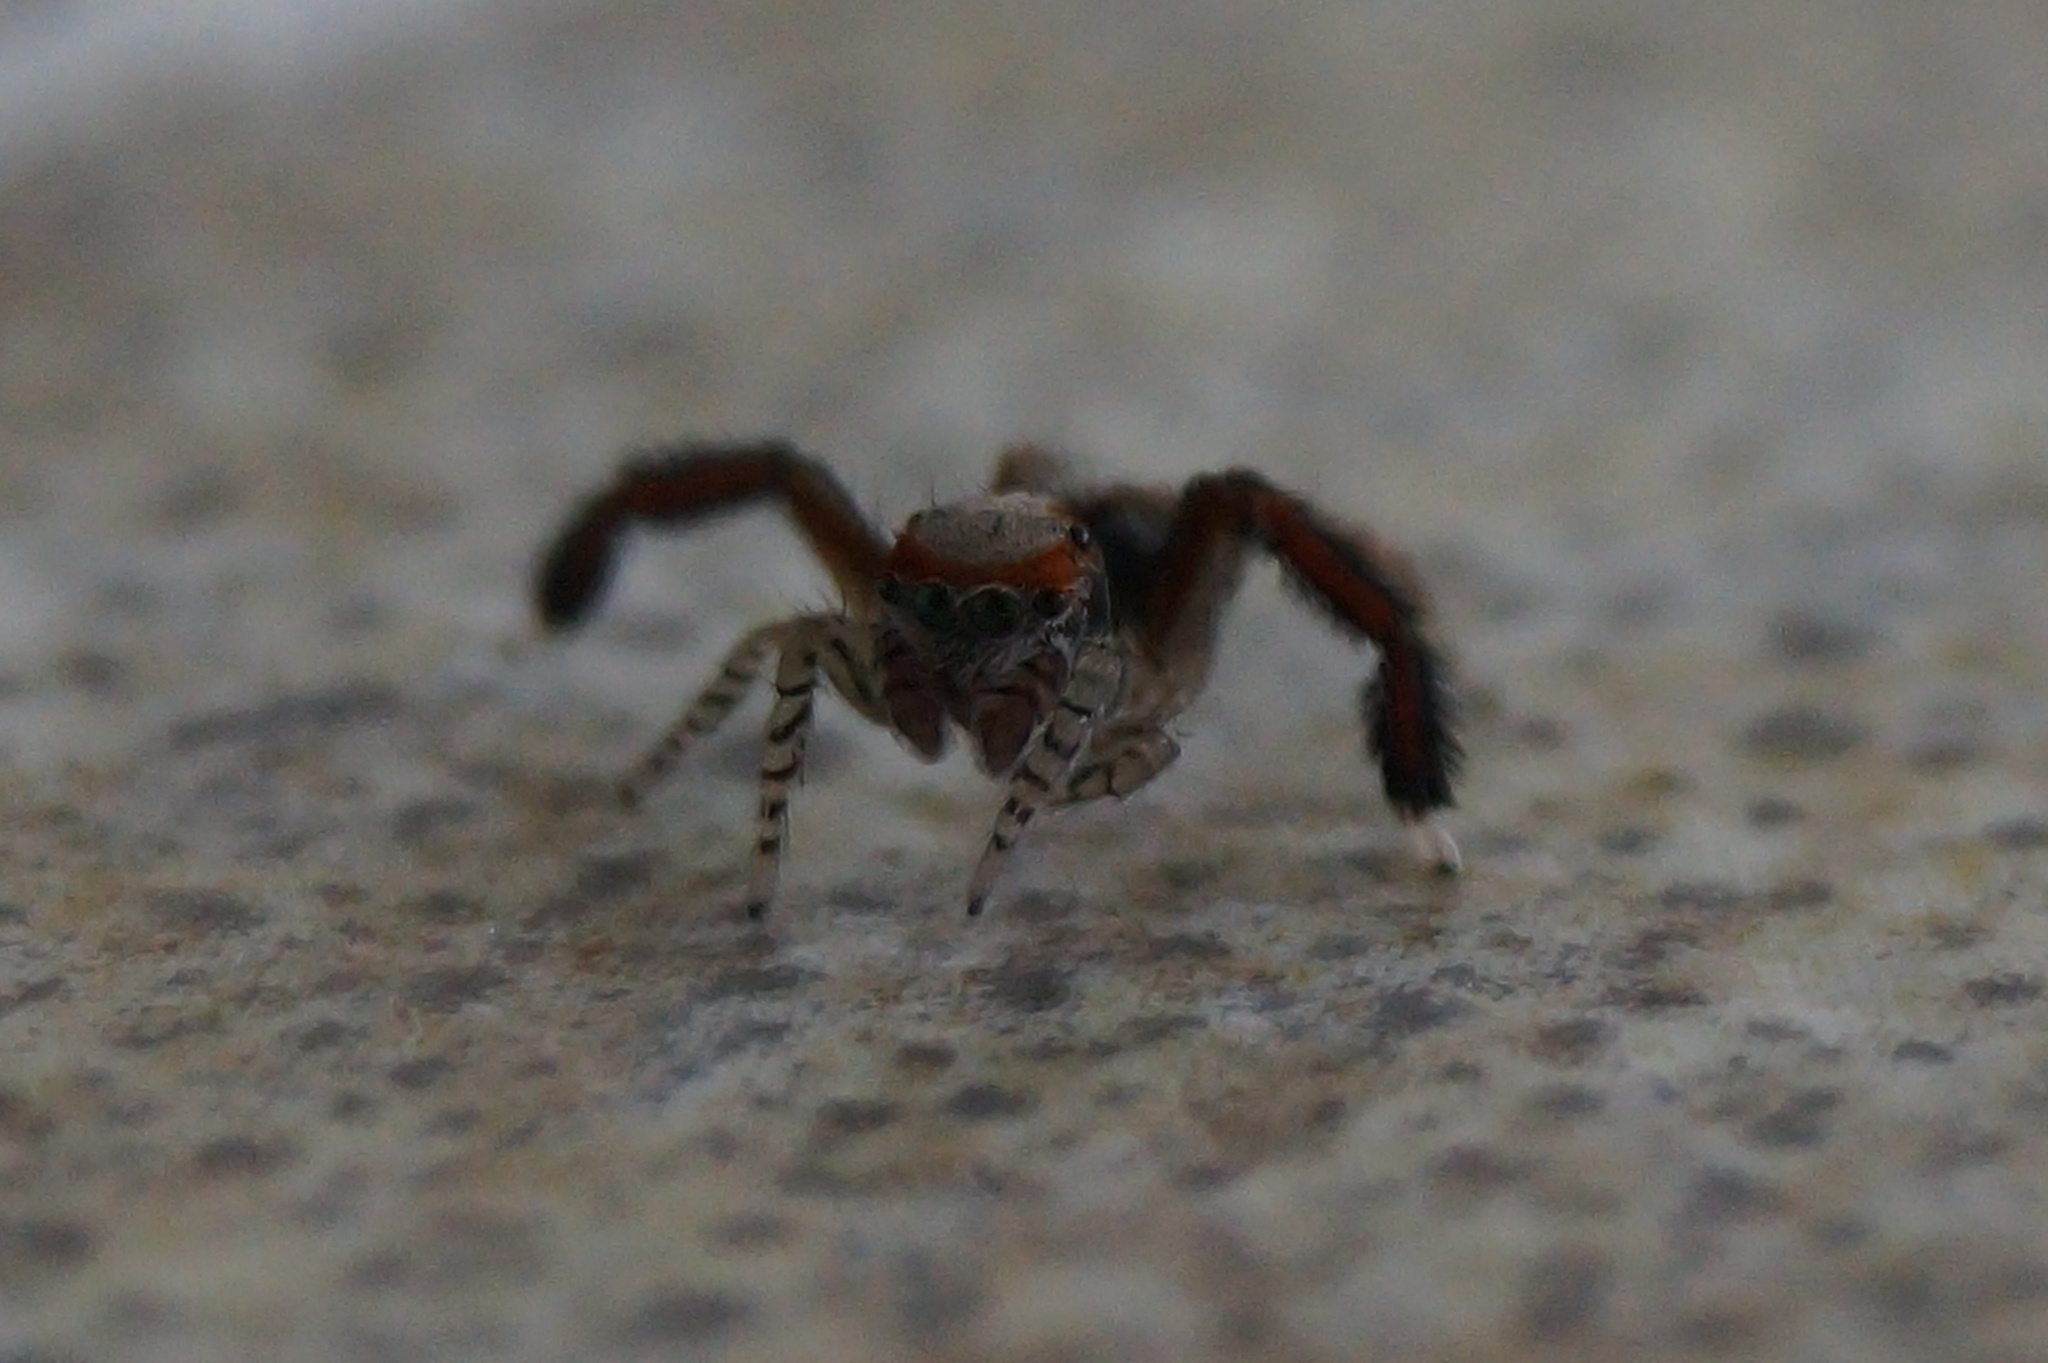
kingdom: Animalia
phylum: Arthropoda
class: Arachnida
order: Araneae
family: Salticidae
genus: Saitis
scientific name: Saitis barbipes
